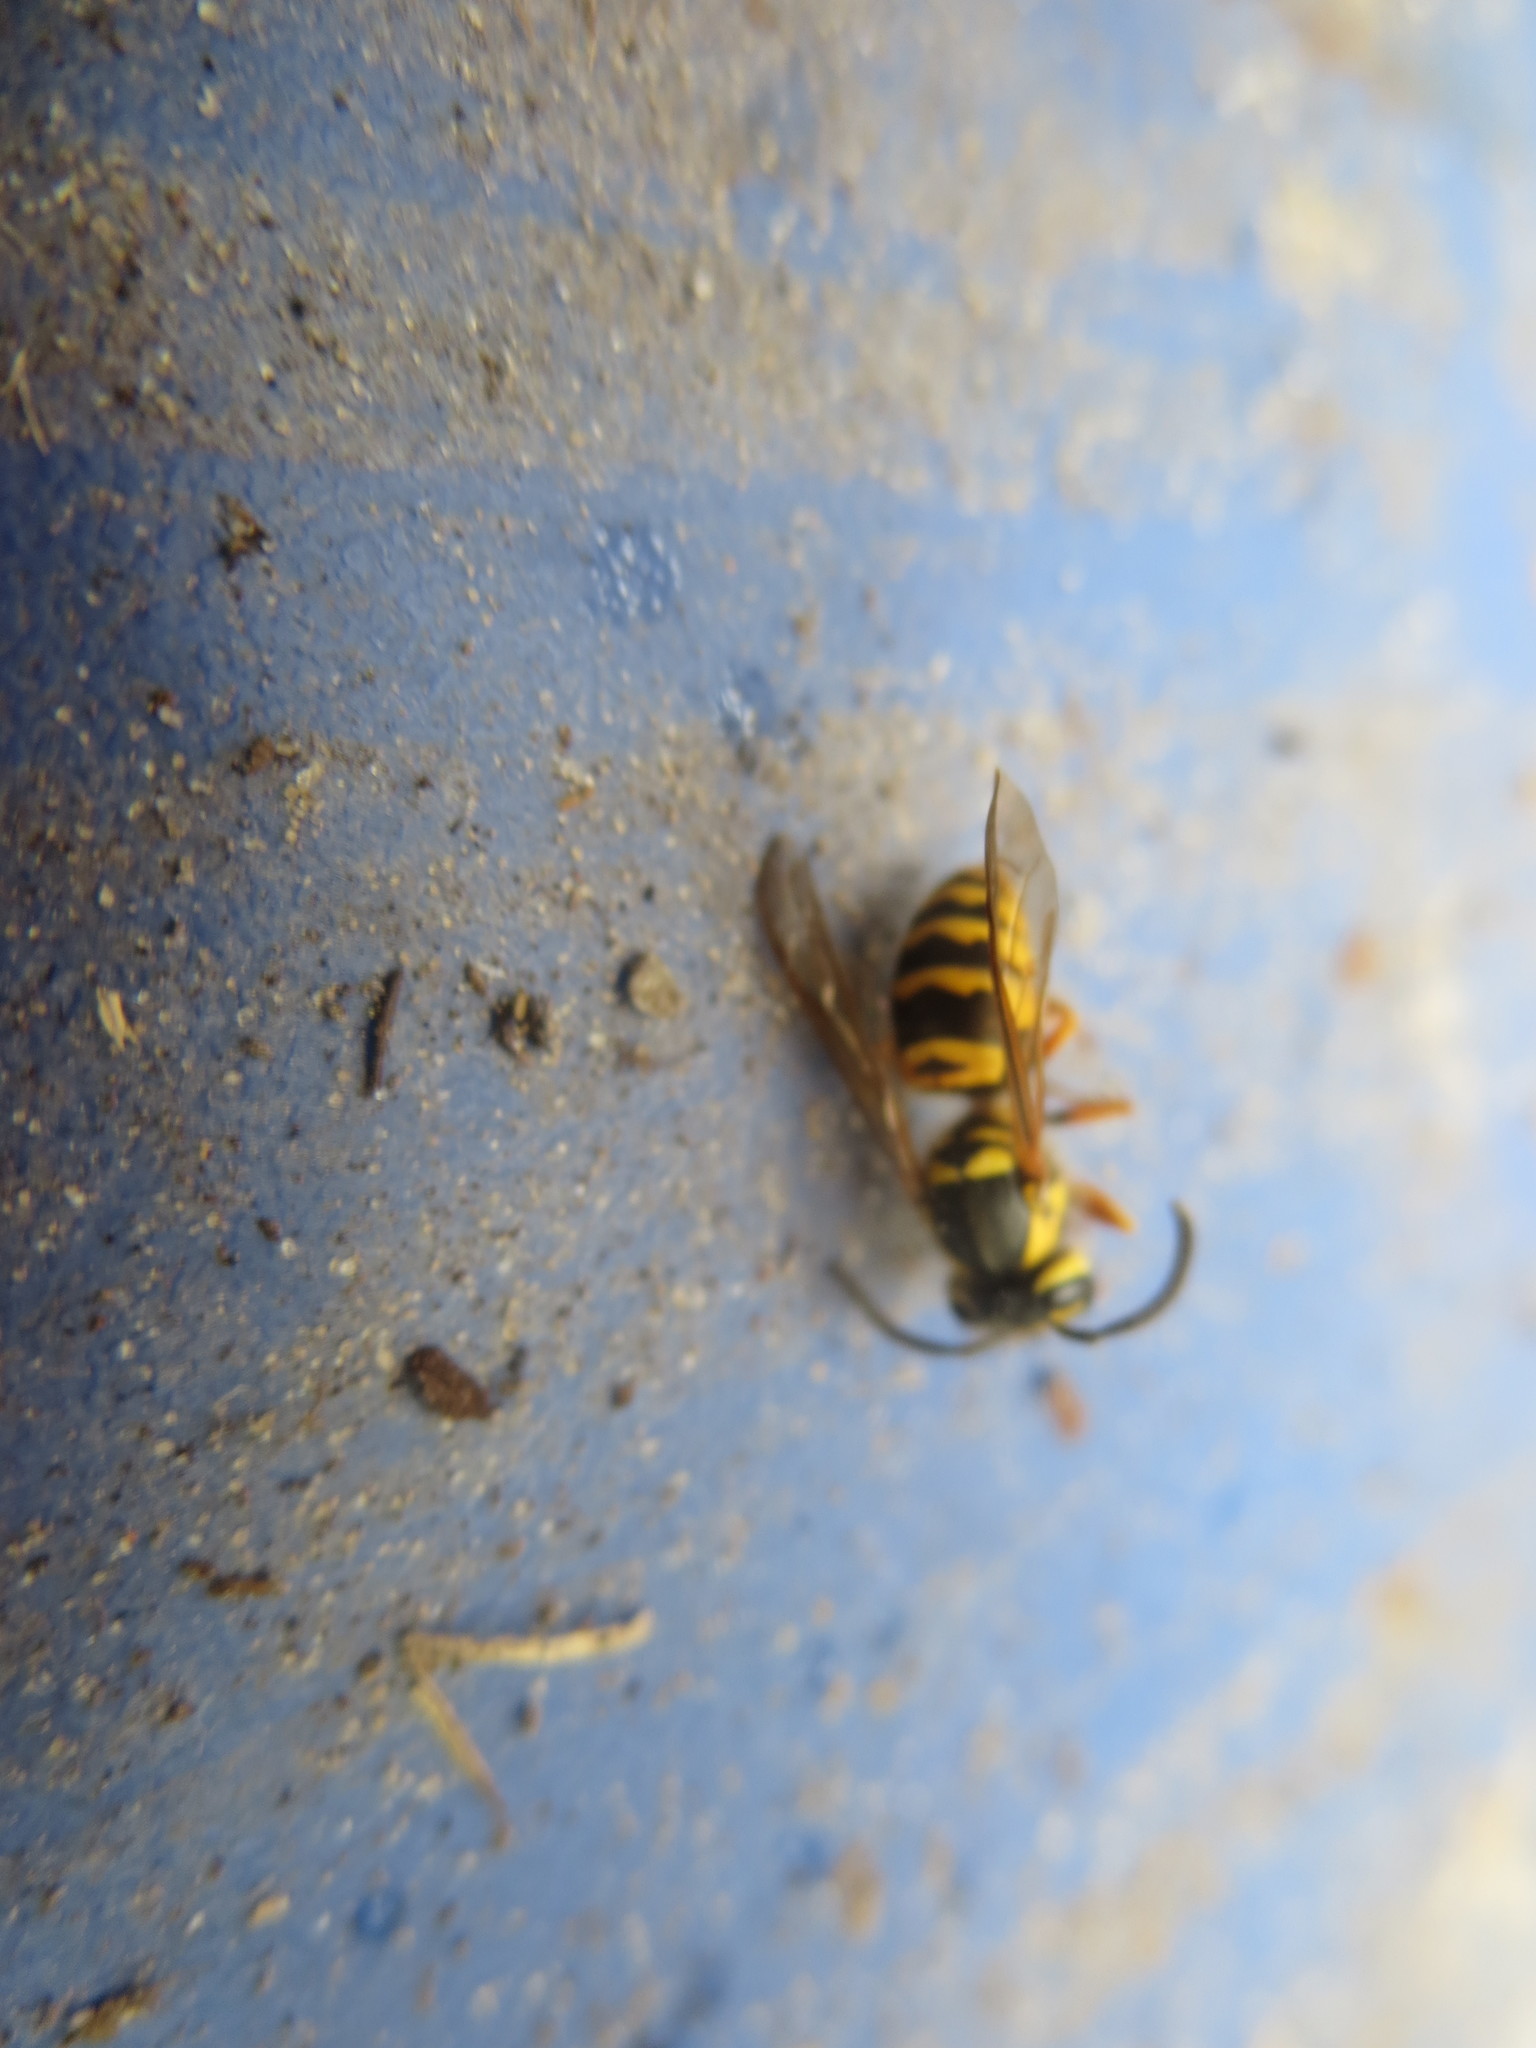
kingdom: Animalia
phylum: Arthropoda
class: Insecta
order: Hymenoptera
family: Vespidae
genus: Vespula
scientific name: Vespula maculifrons
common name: Eastern yellowjacket
